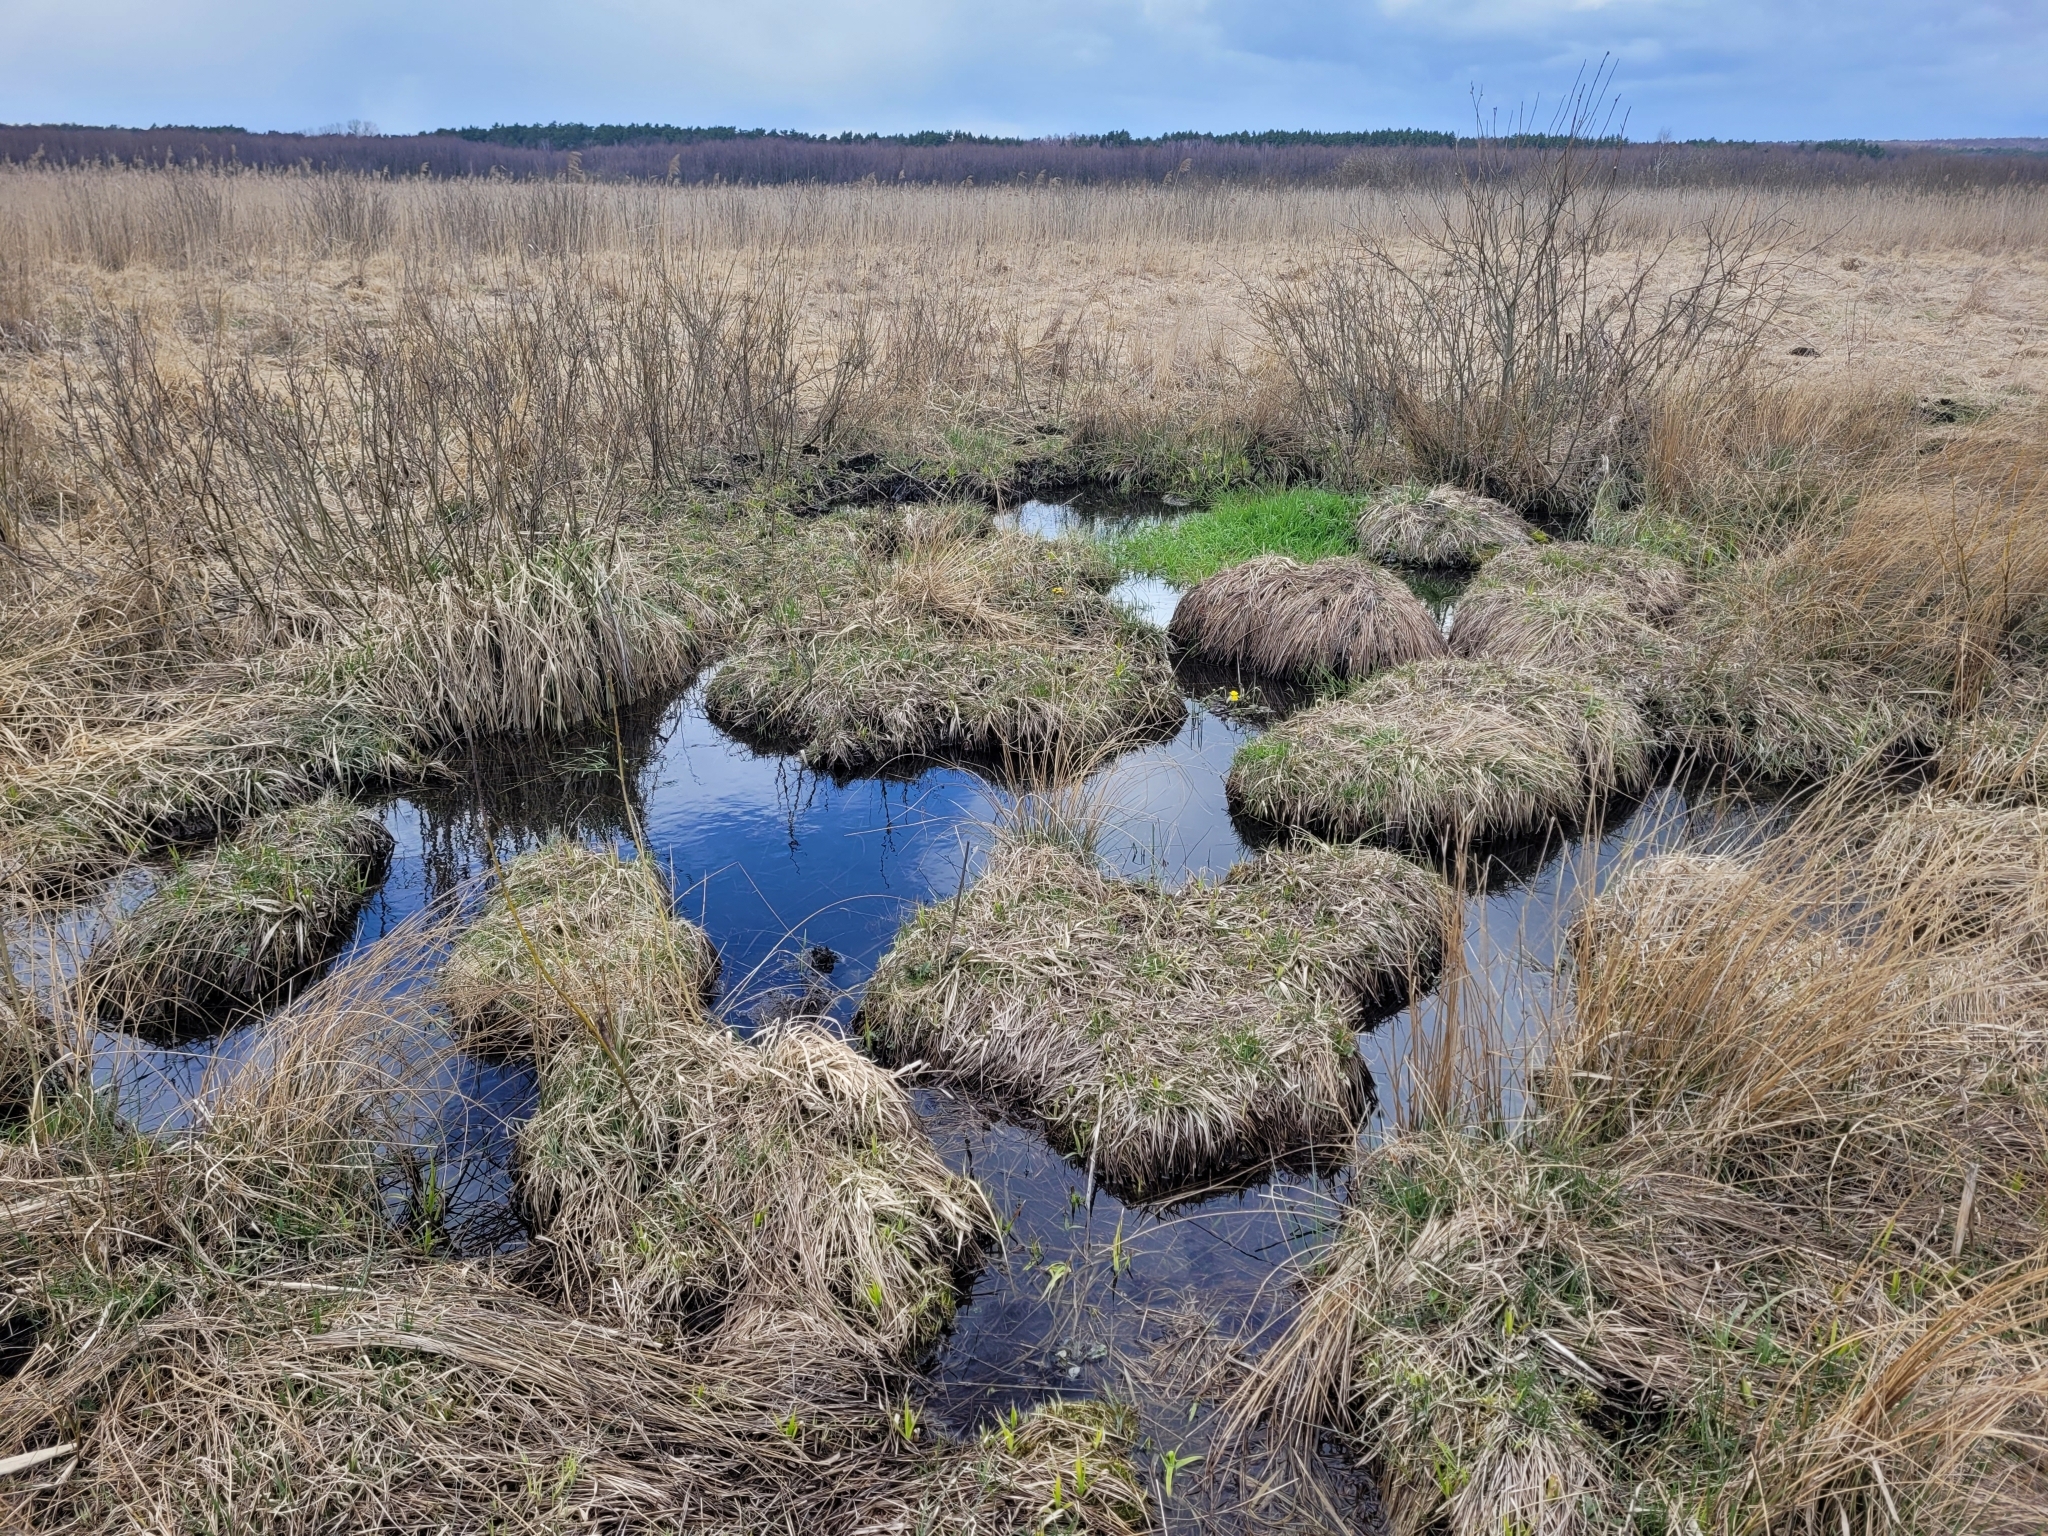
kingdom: Plantae
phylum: Tracheophyta
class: Magnoliopsida
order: Ranunculales
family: Ranunculaceae
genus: Caltha
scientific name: Caltha palustris
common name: Marsh marigold
